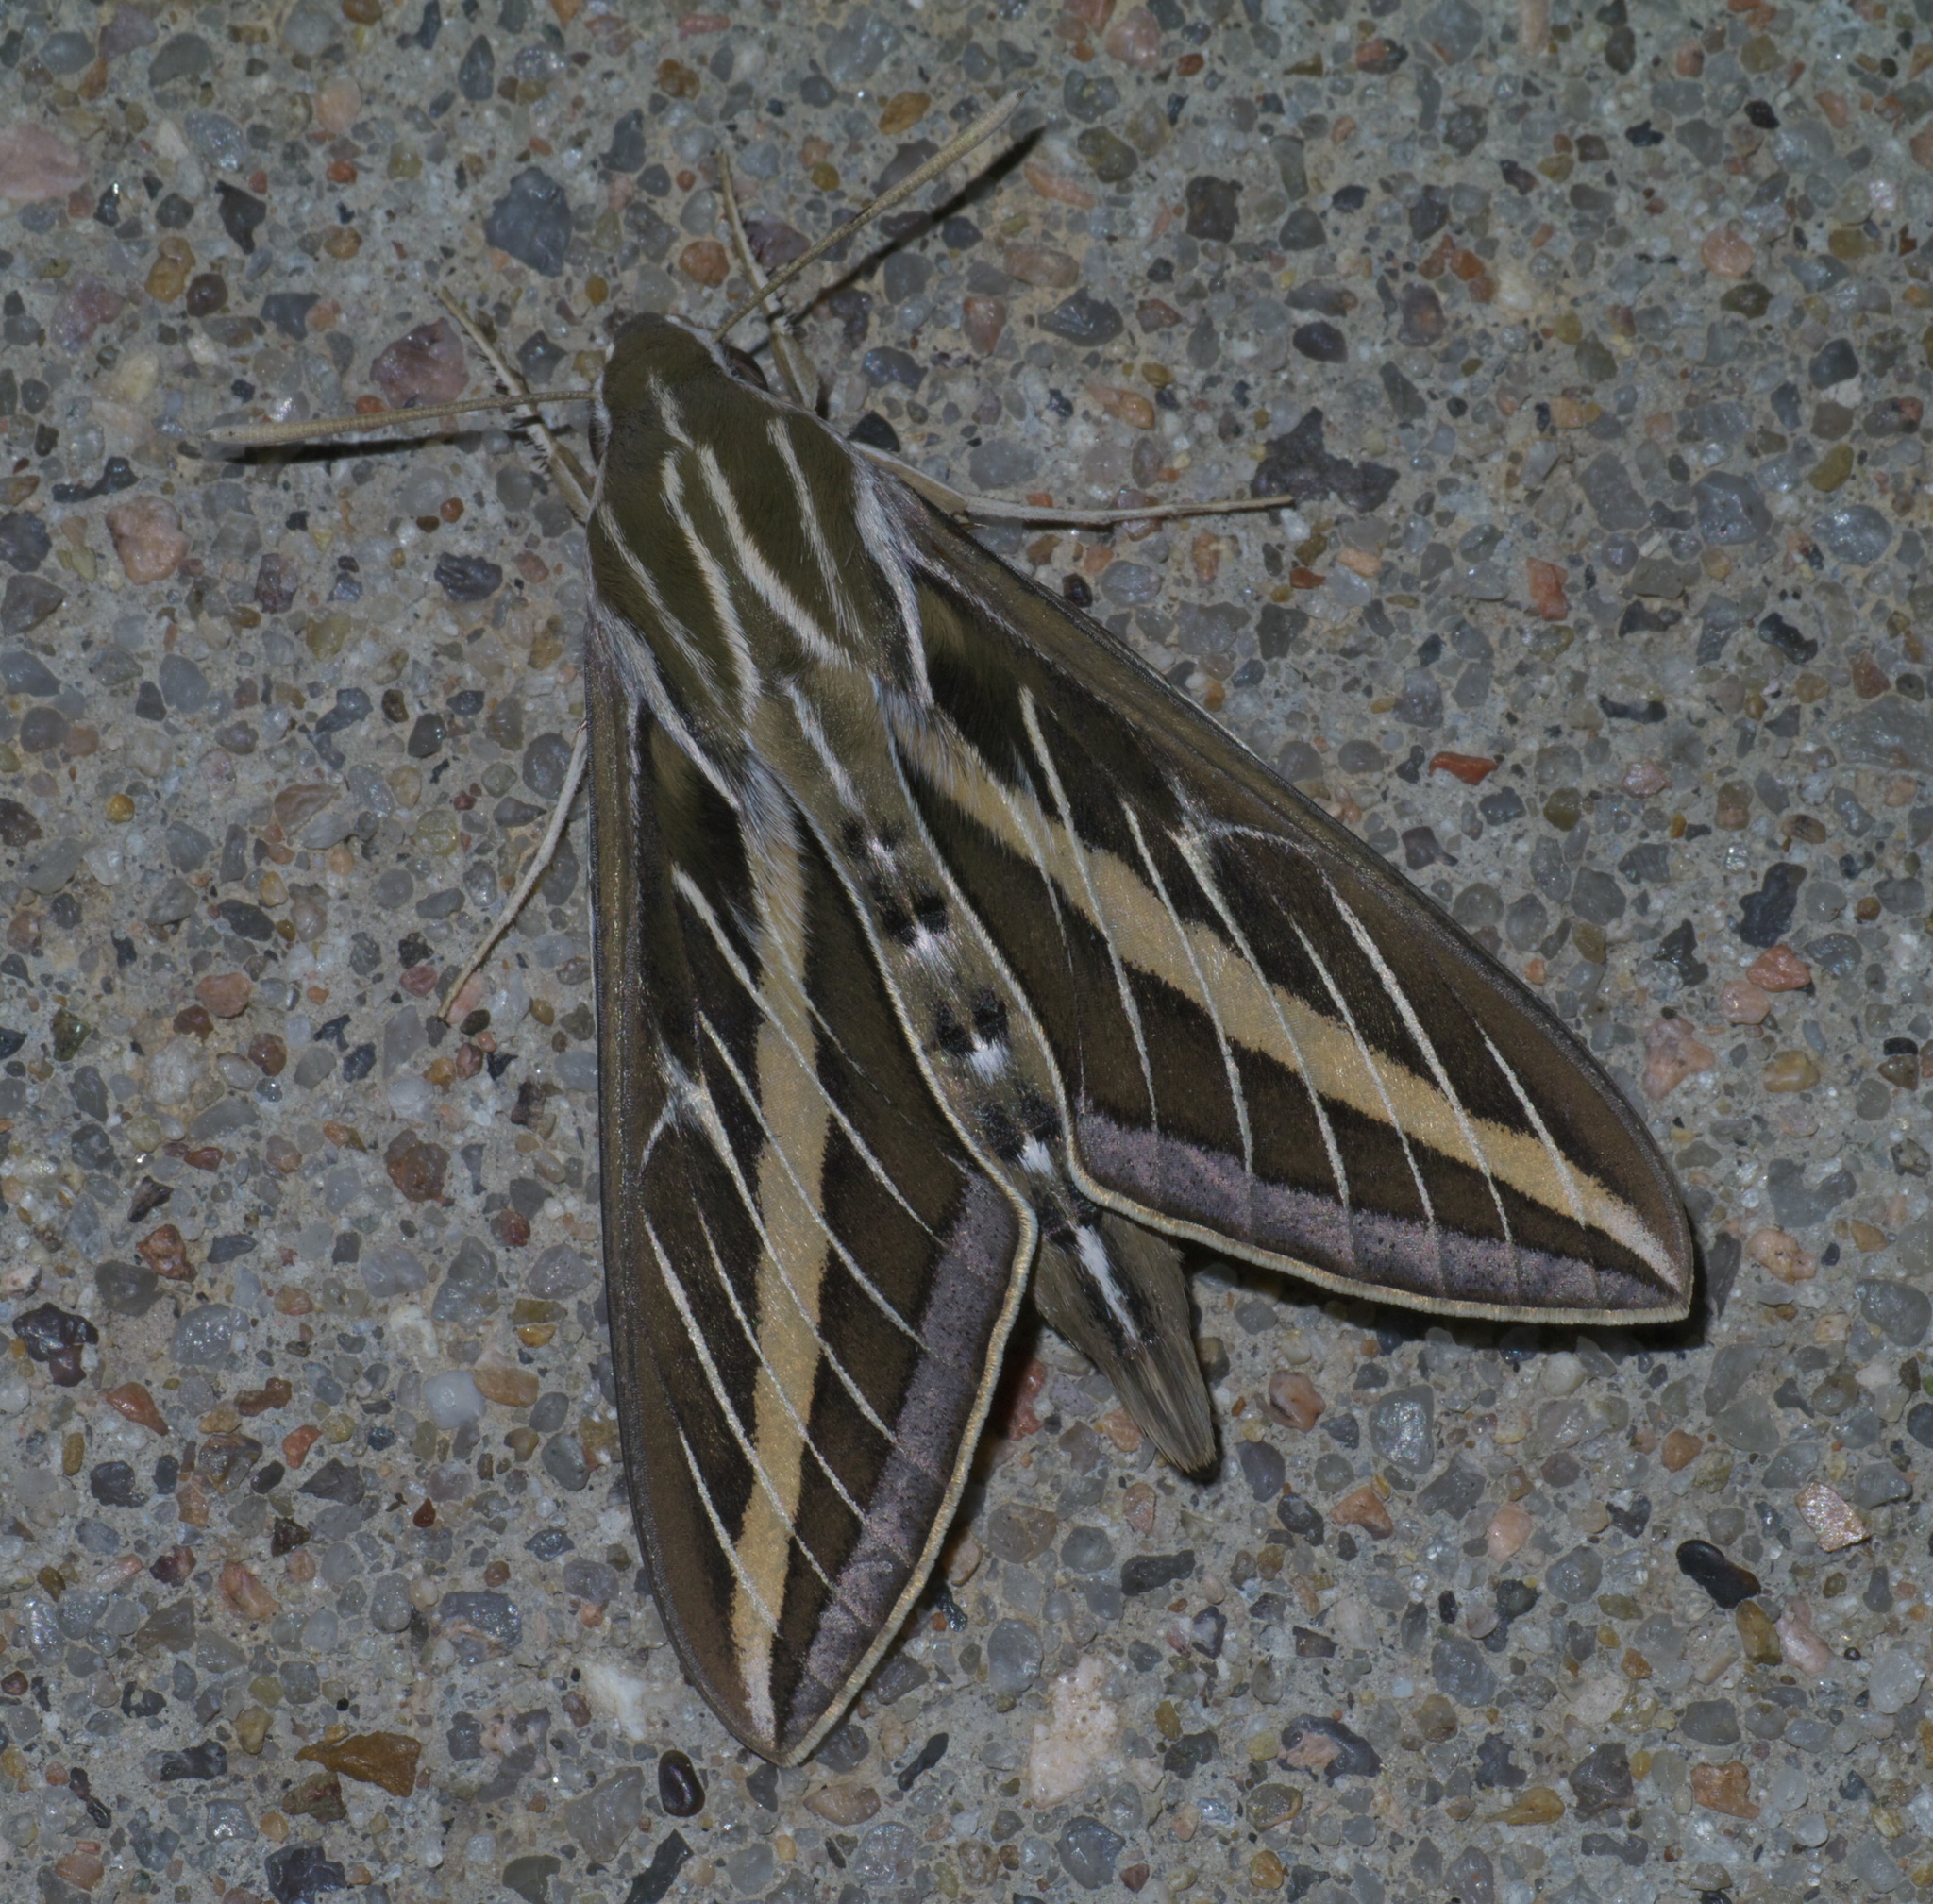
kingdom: Animalia
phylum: Arthropoda
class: Insecta
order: Lepidoptera
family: Sphingidae
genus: Hyles
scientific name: Hyles lineata
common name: White-lined sphinx
